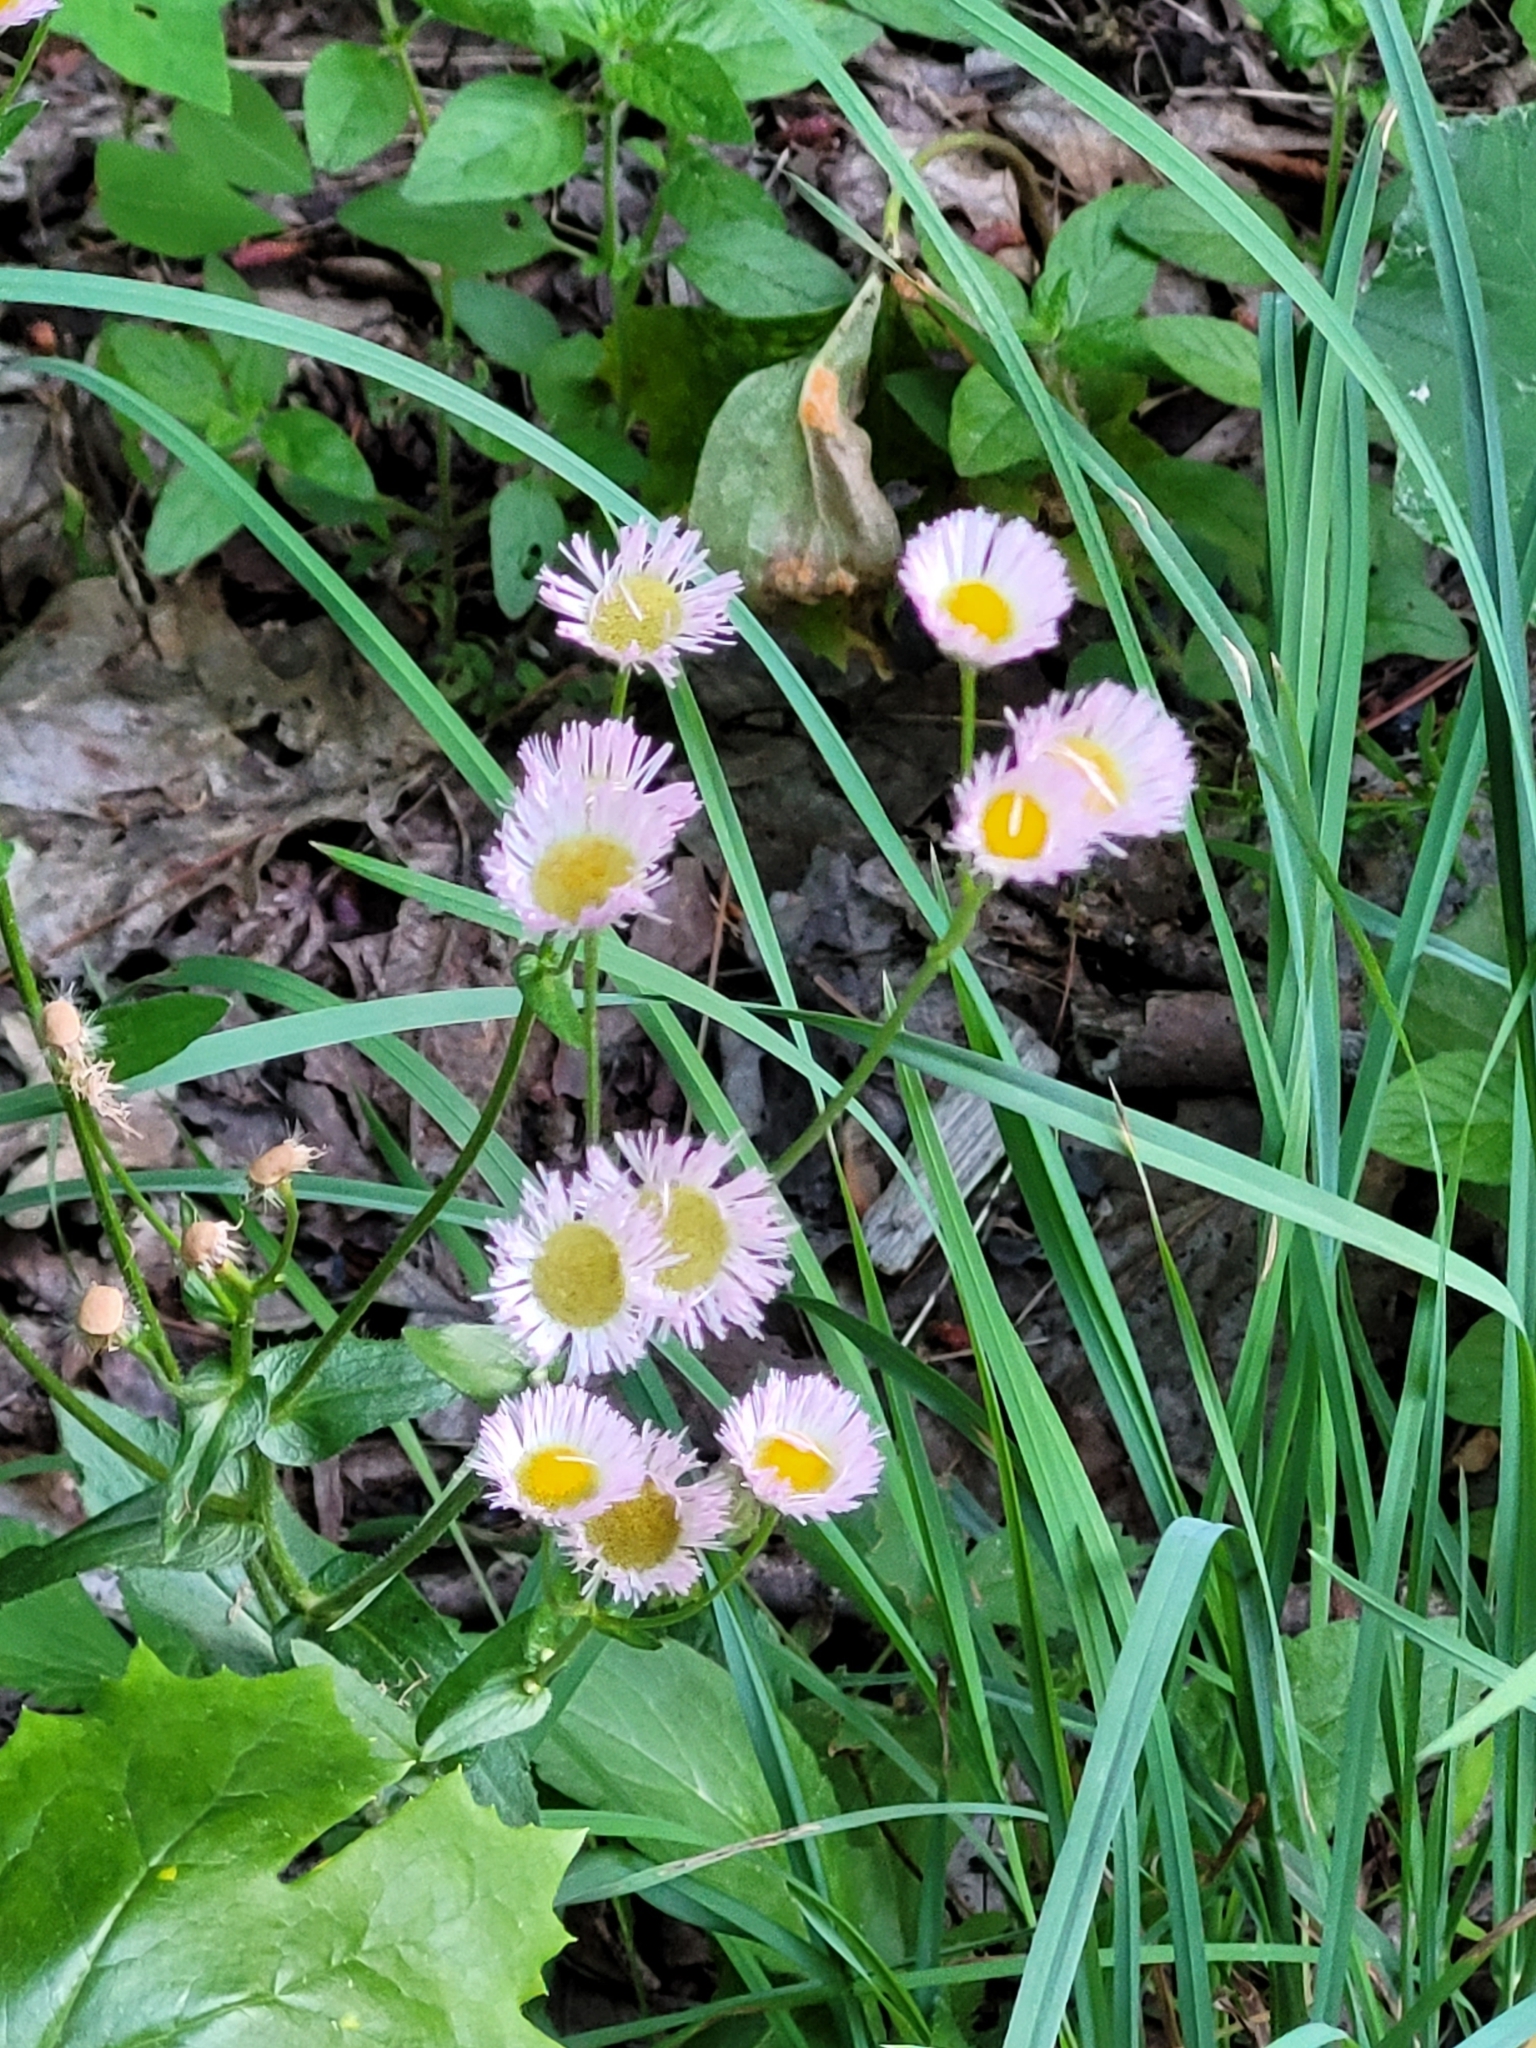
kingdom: Plantae
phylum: Tracheophyta
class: Magnoliopsida
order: Asterales
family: Asteraceae
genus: Erigeron
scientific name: Erigeron philadelphicus
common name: Robin's-plantain
